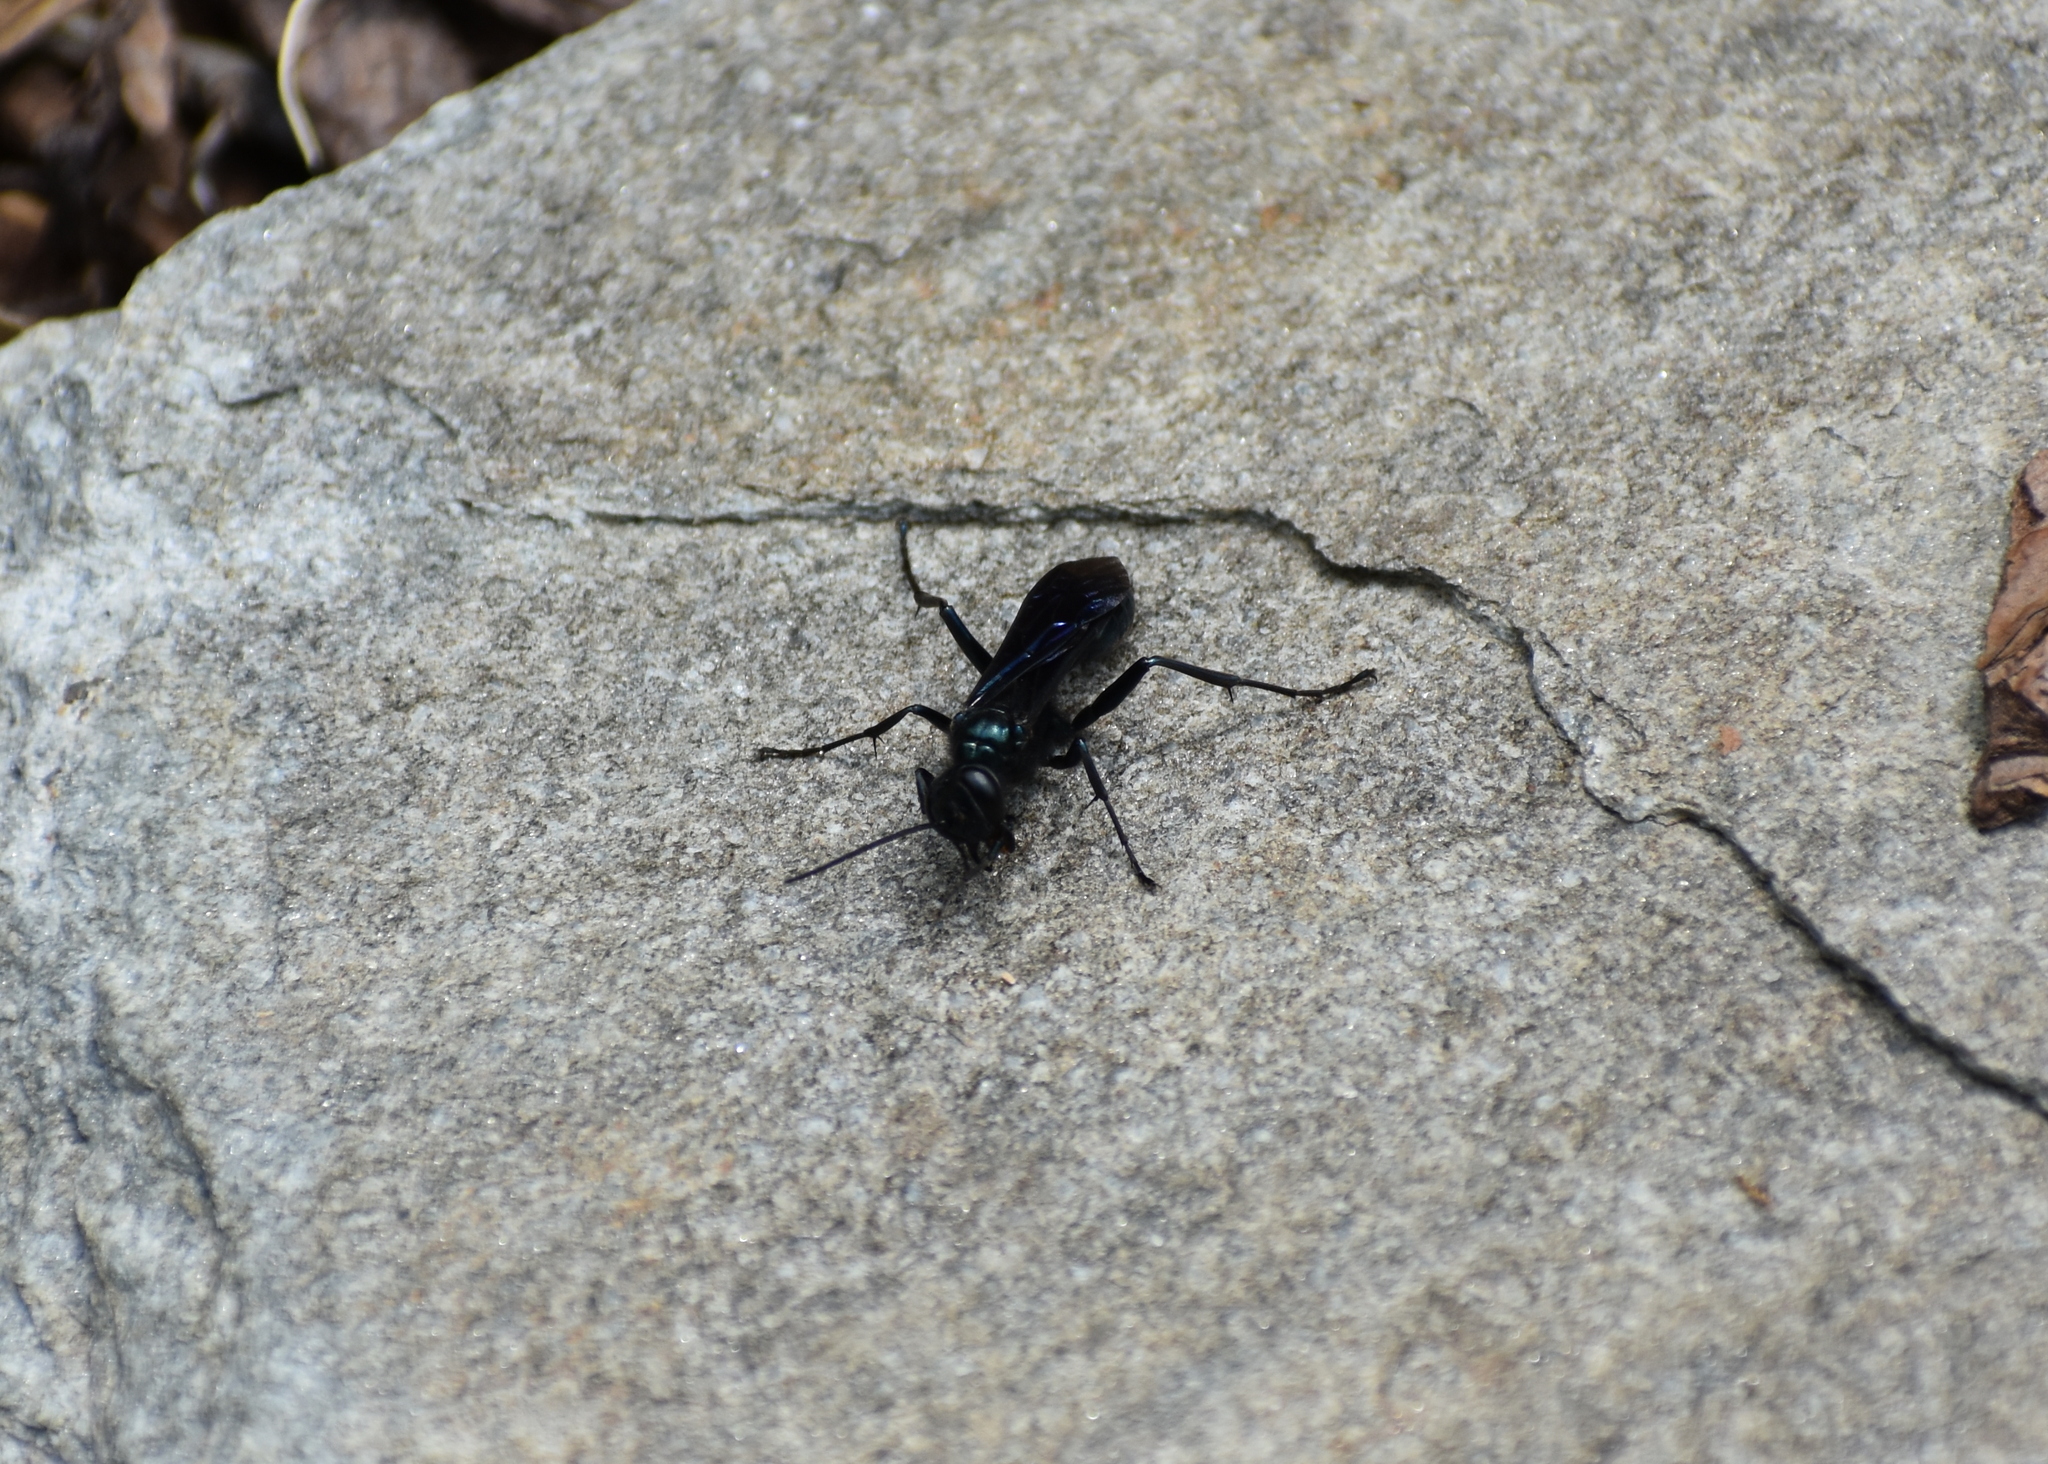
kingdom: Animalia
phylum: Arthropoda
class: Insecta
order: Hymenoptera
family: Sphecidae
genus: Chalybion
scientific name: Chalybion californicum
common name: Mud dauber
